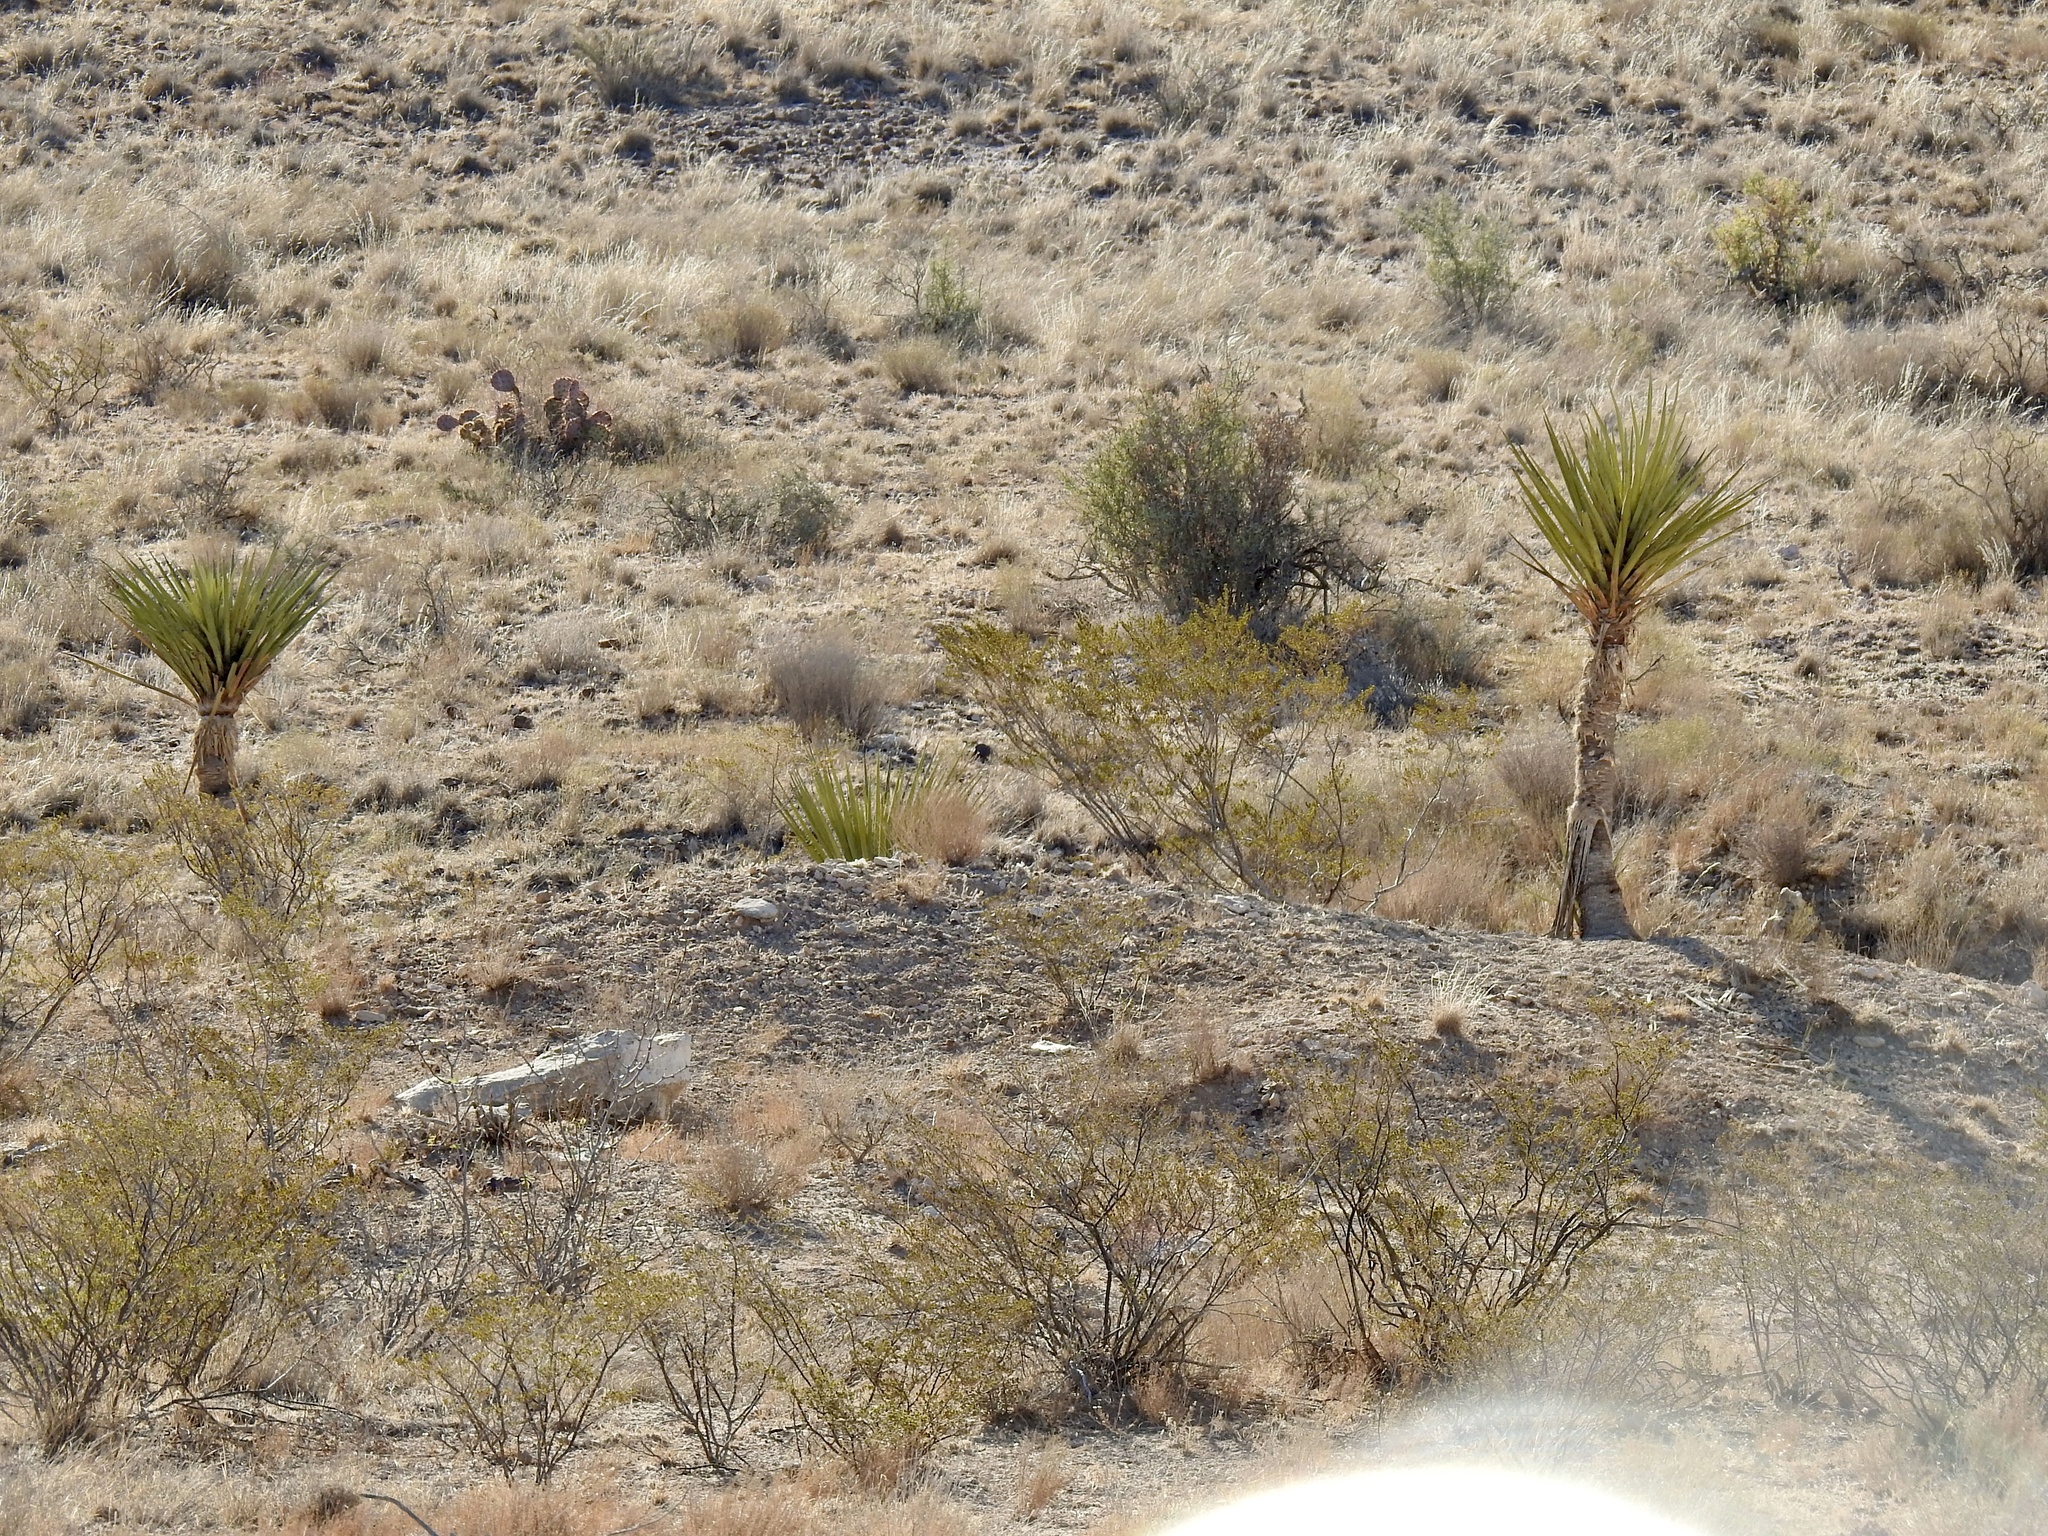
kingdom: Plantae
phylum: Tracheophyta
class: Liliopsida
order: Asparagales
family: Asparagaceae
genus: Yucca
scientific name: Yucca treculiana
